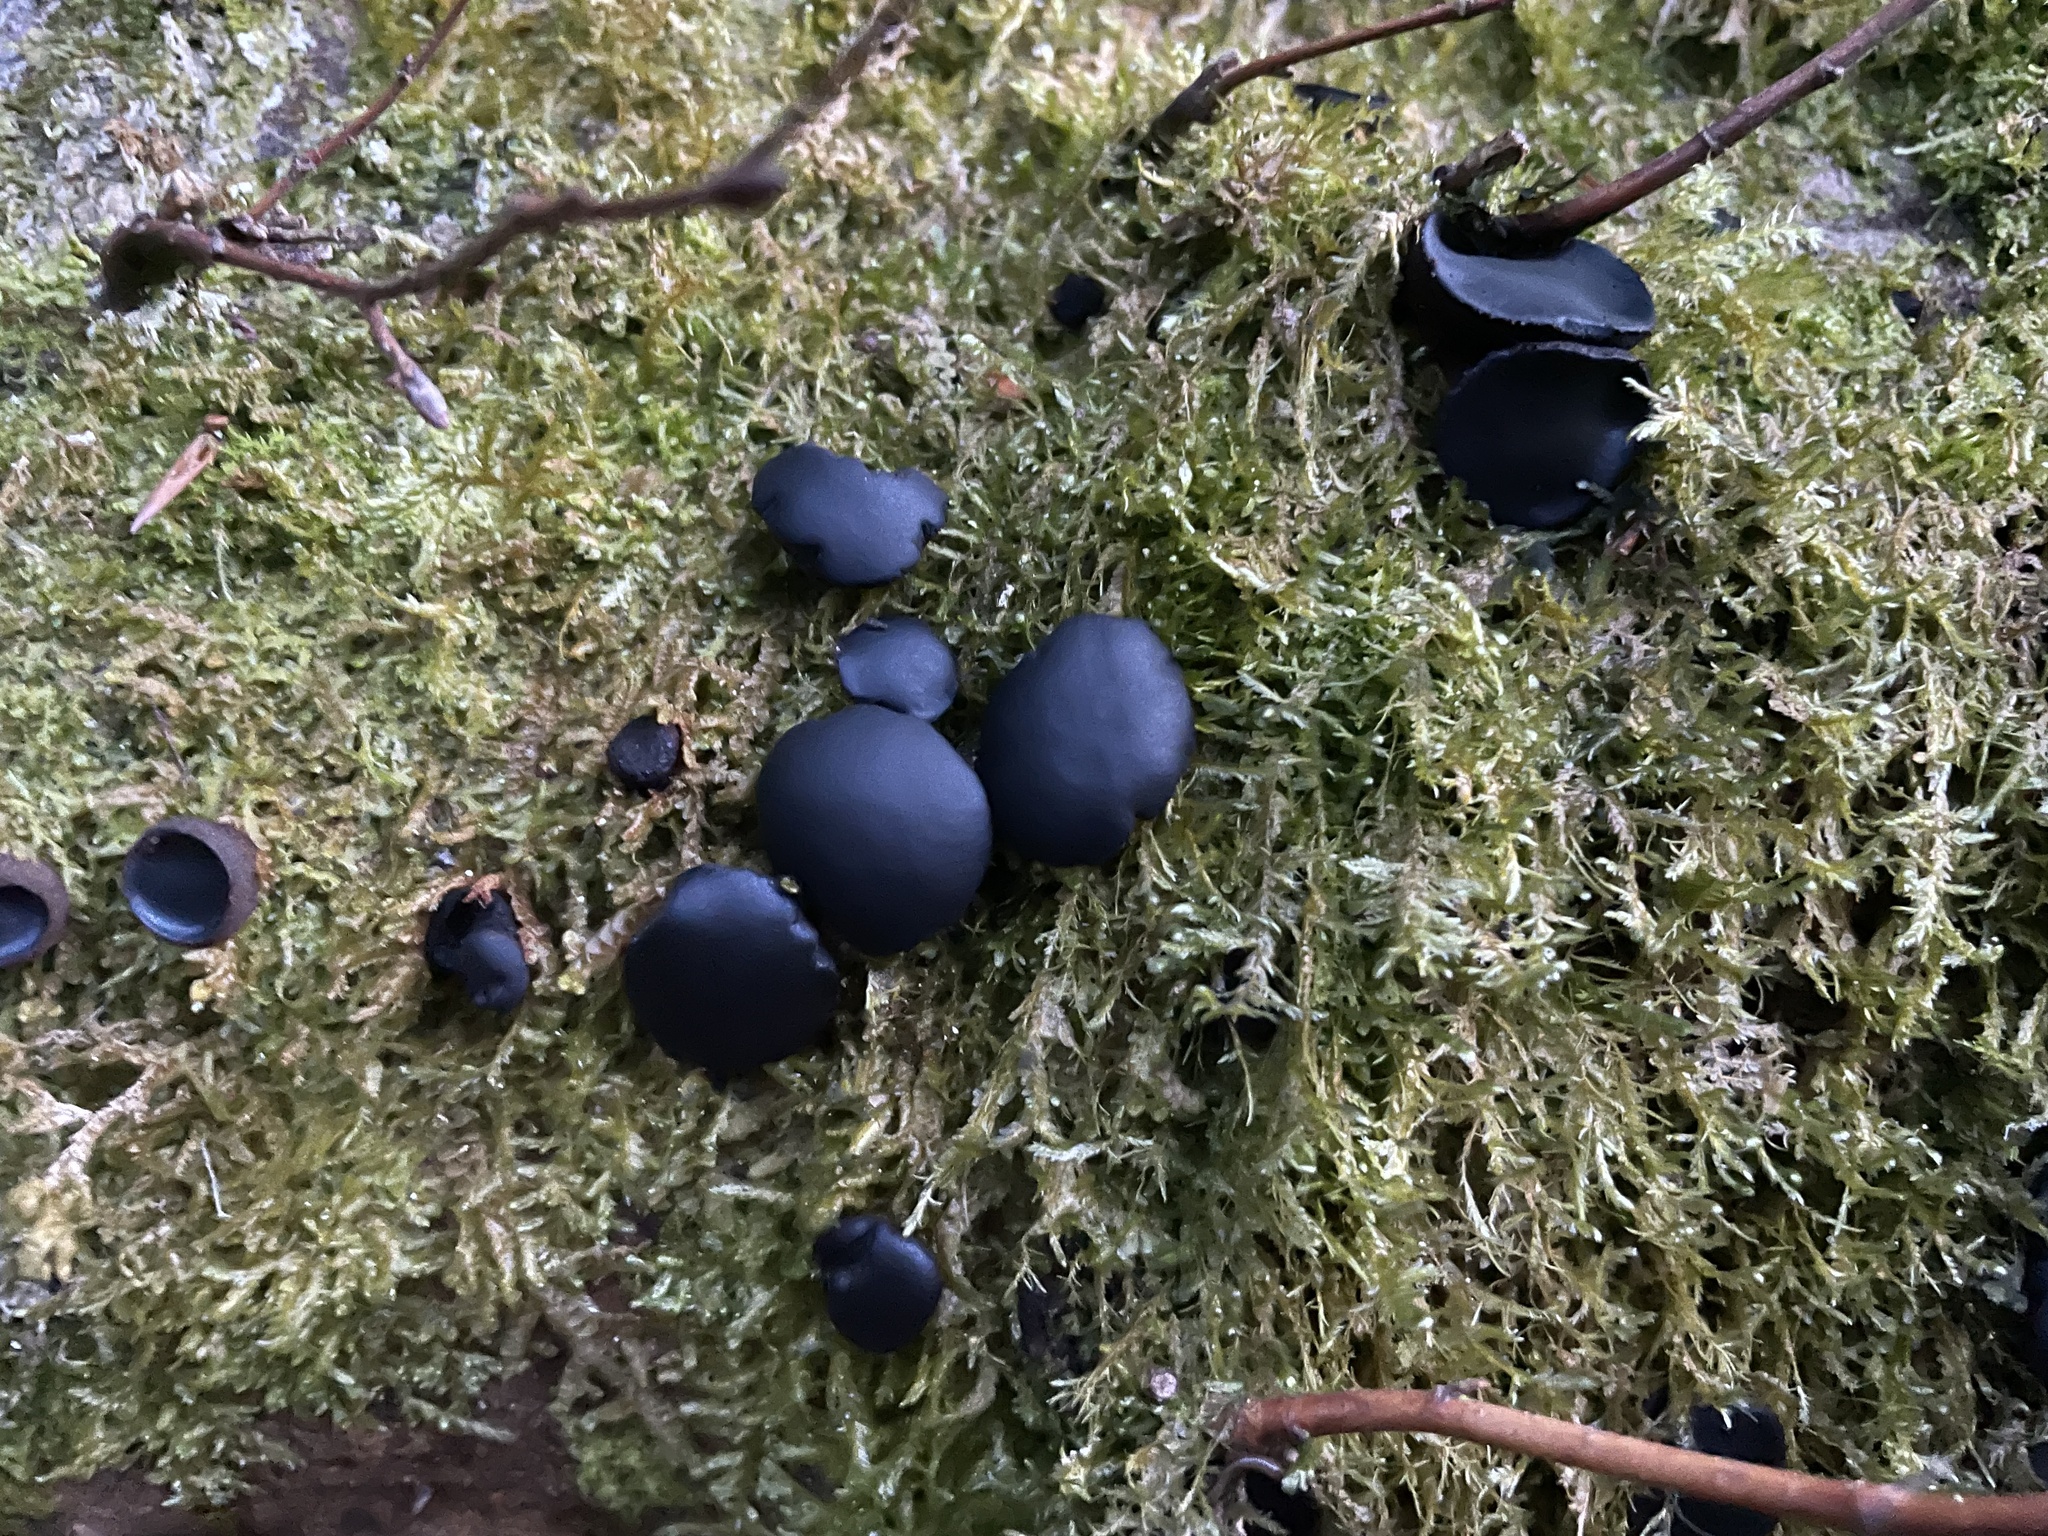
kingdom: Fungi
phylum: Ascomycota
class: Leotiomycetes
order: Phacidiales
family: Phacidiaceae
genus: Bulgaria
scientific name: Bulgaria inquinans
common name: Black bulgar
